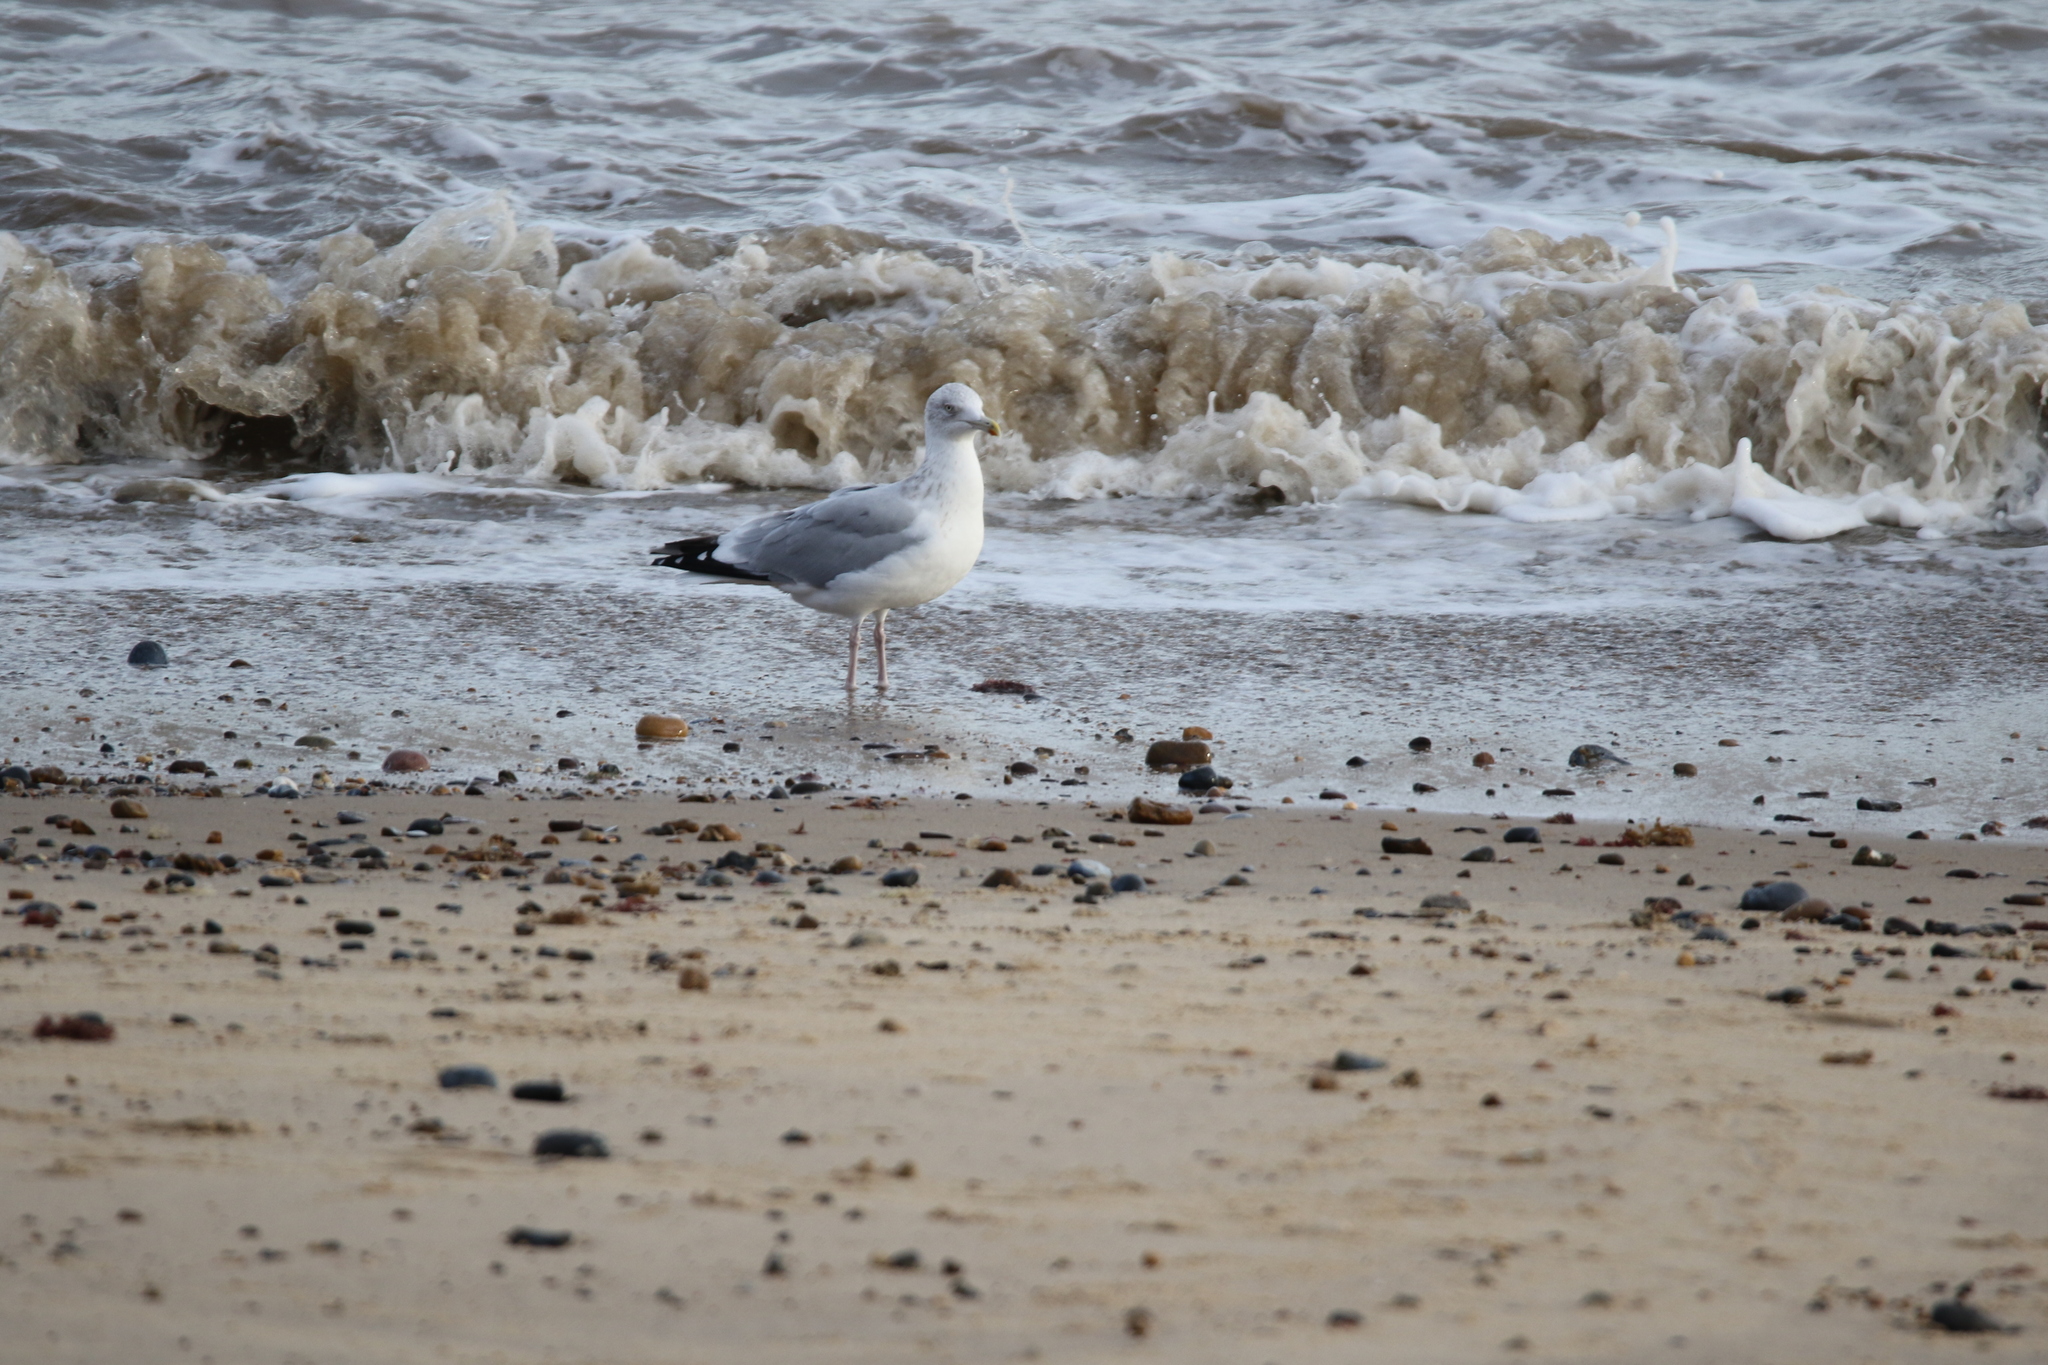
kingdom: Animalia
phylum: Chordata
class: Aves
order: Charadriiformes
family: Laridae
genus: Larus
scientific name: Larus argentatus
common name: Herring gull
